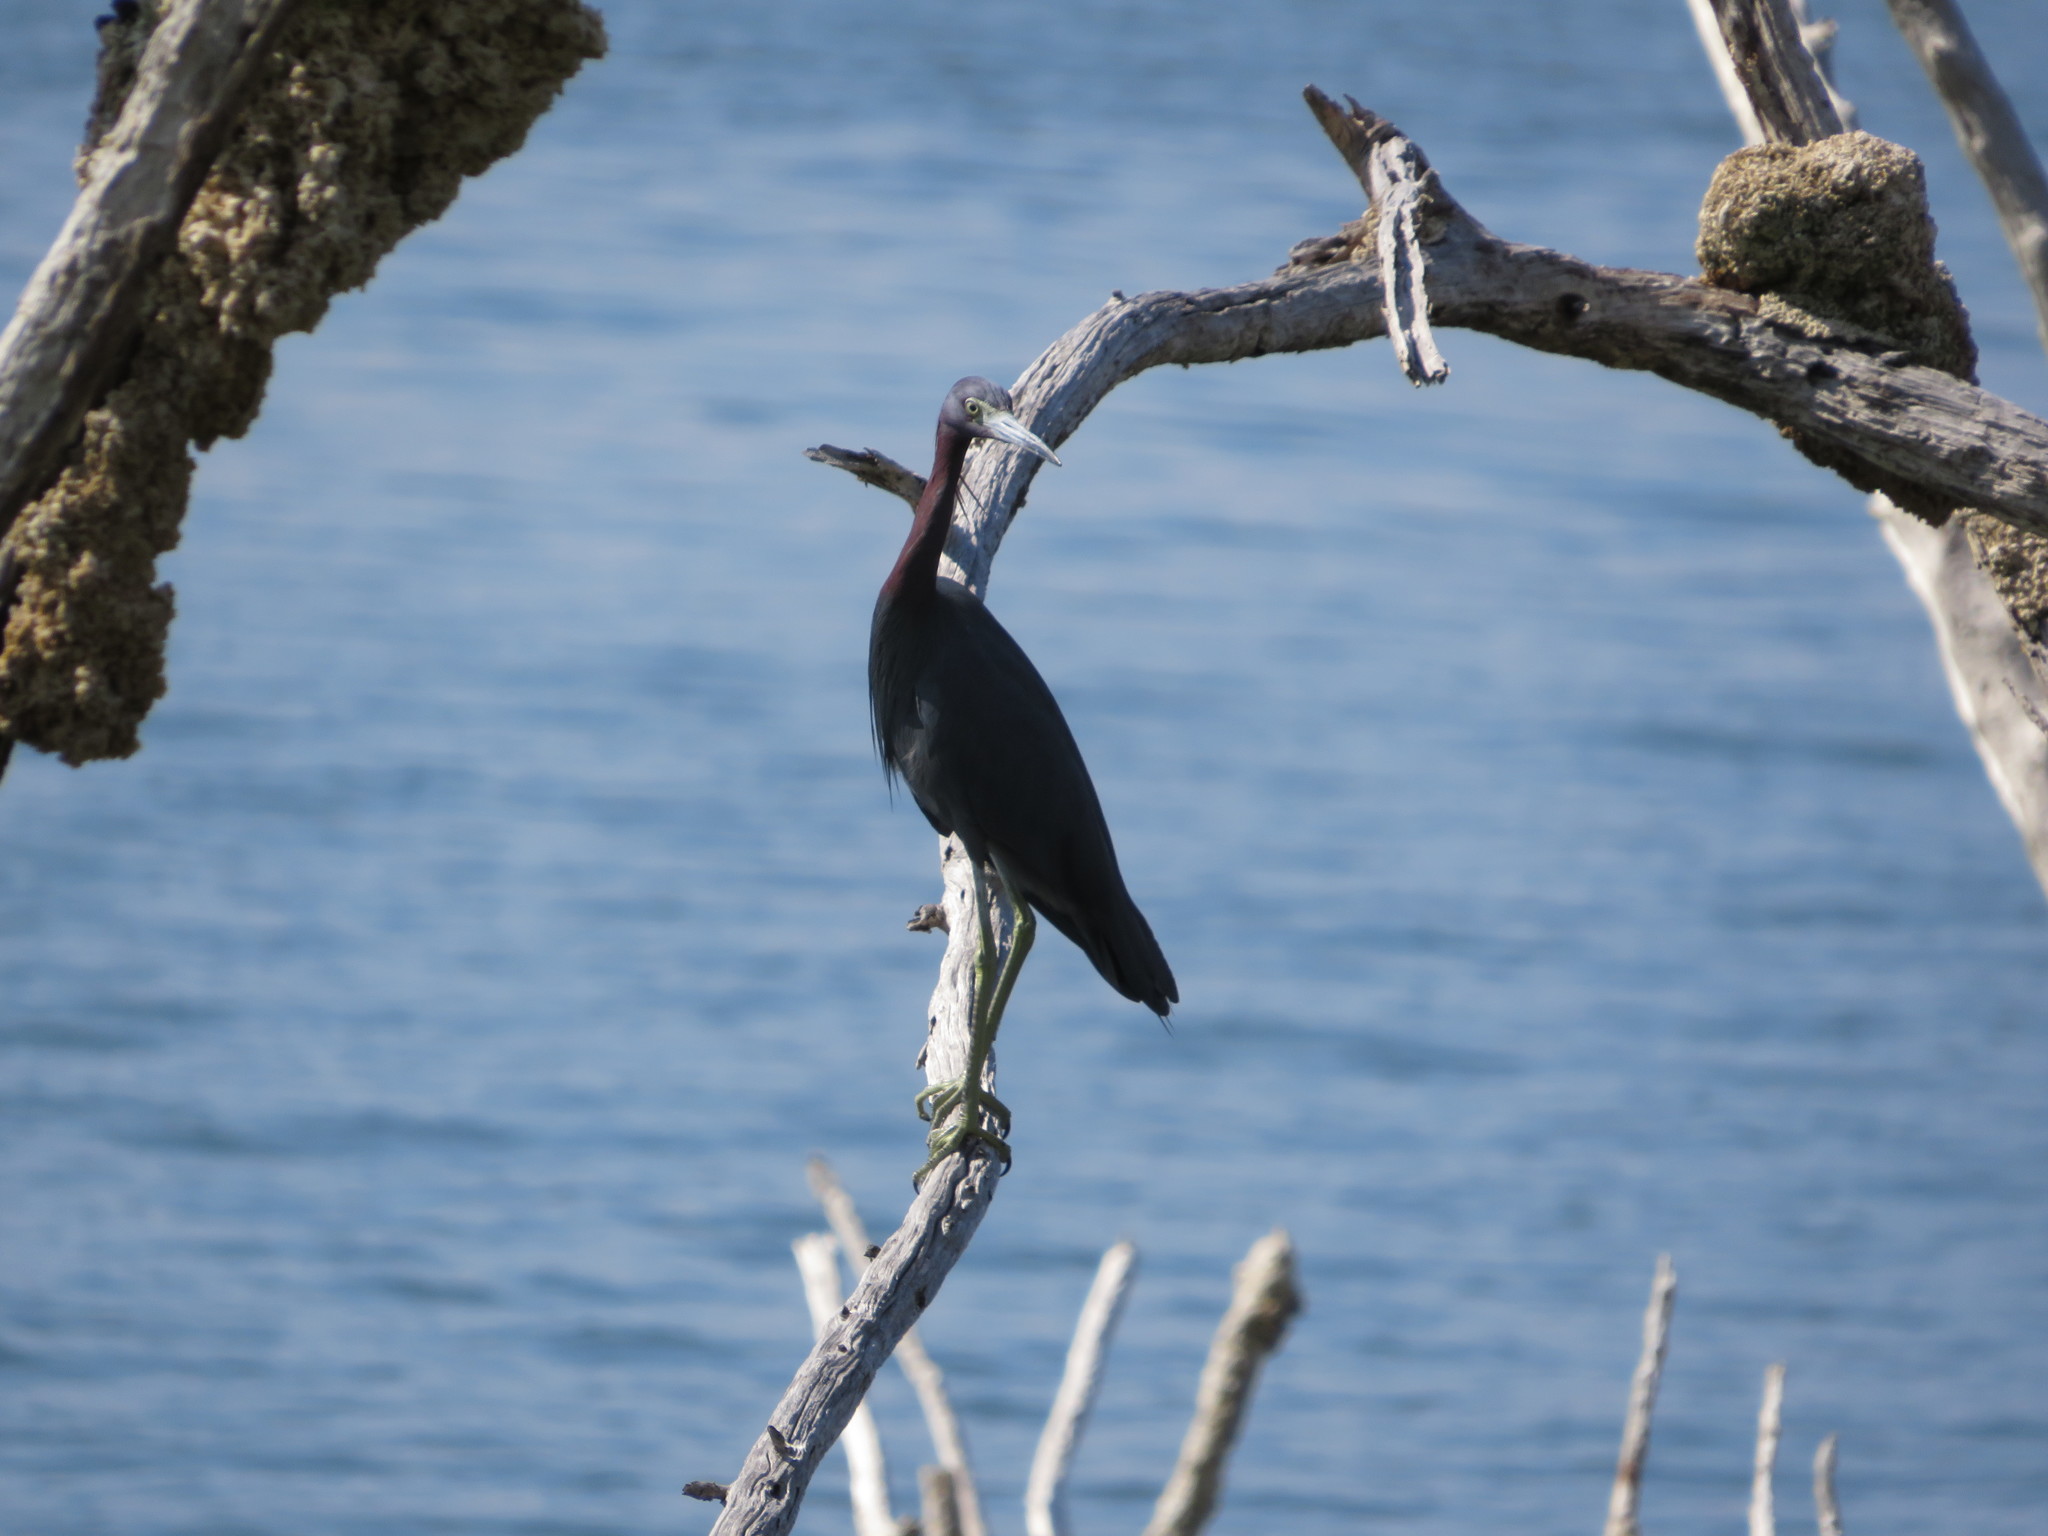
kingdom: Animalia
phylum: Chordata
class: Aves
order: Pelecaniformes
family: Ardeidae
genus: Egretta
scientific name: Egretta caerulea
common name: Little blue heron
